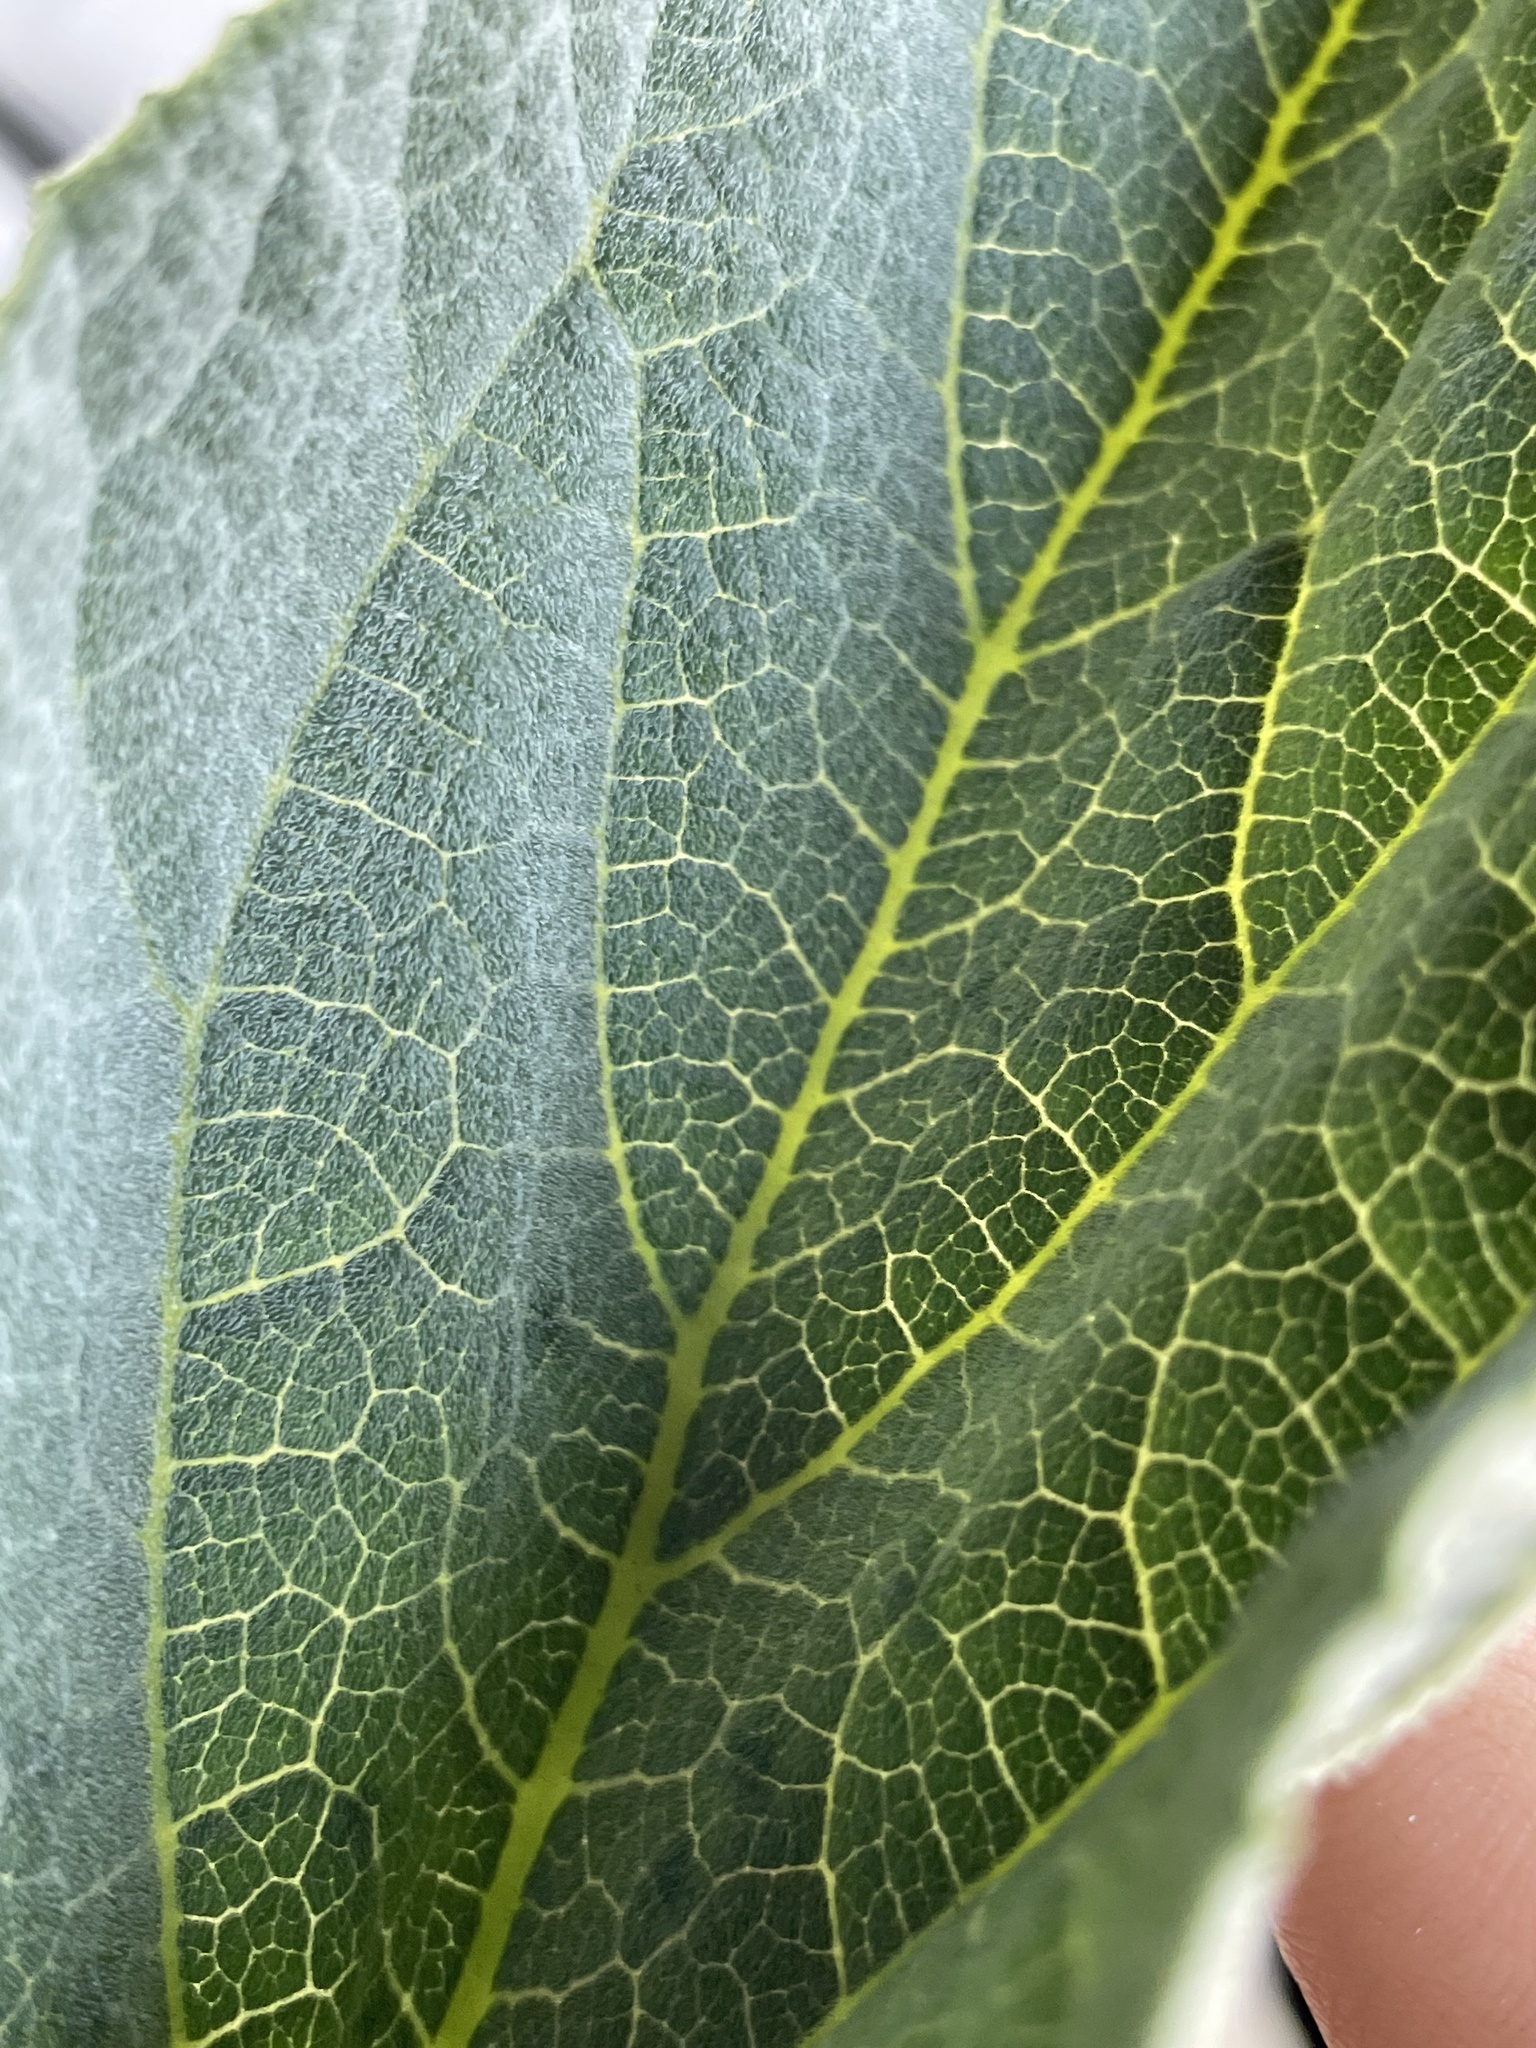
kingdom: Plantae
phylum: Tracheophyta
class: Magnoliopsida
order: Cucurbitales
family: Cucurbitaceae
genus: Cucurbita
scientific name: Cucurbita foetidissima
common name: Buffalo gourd
